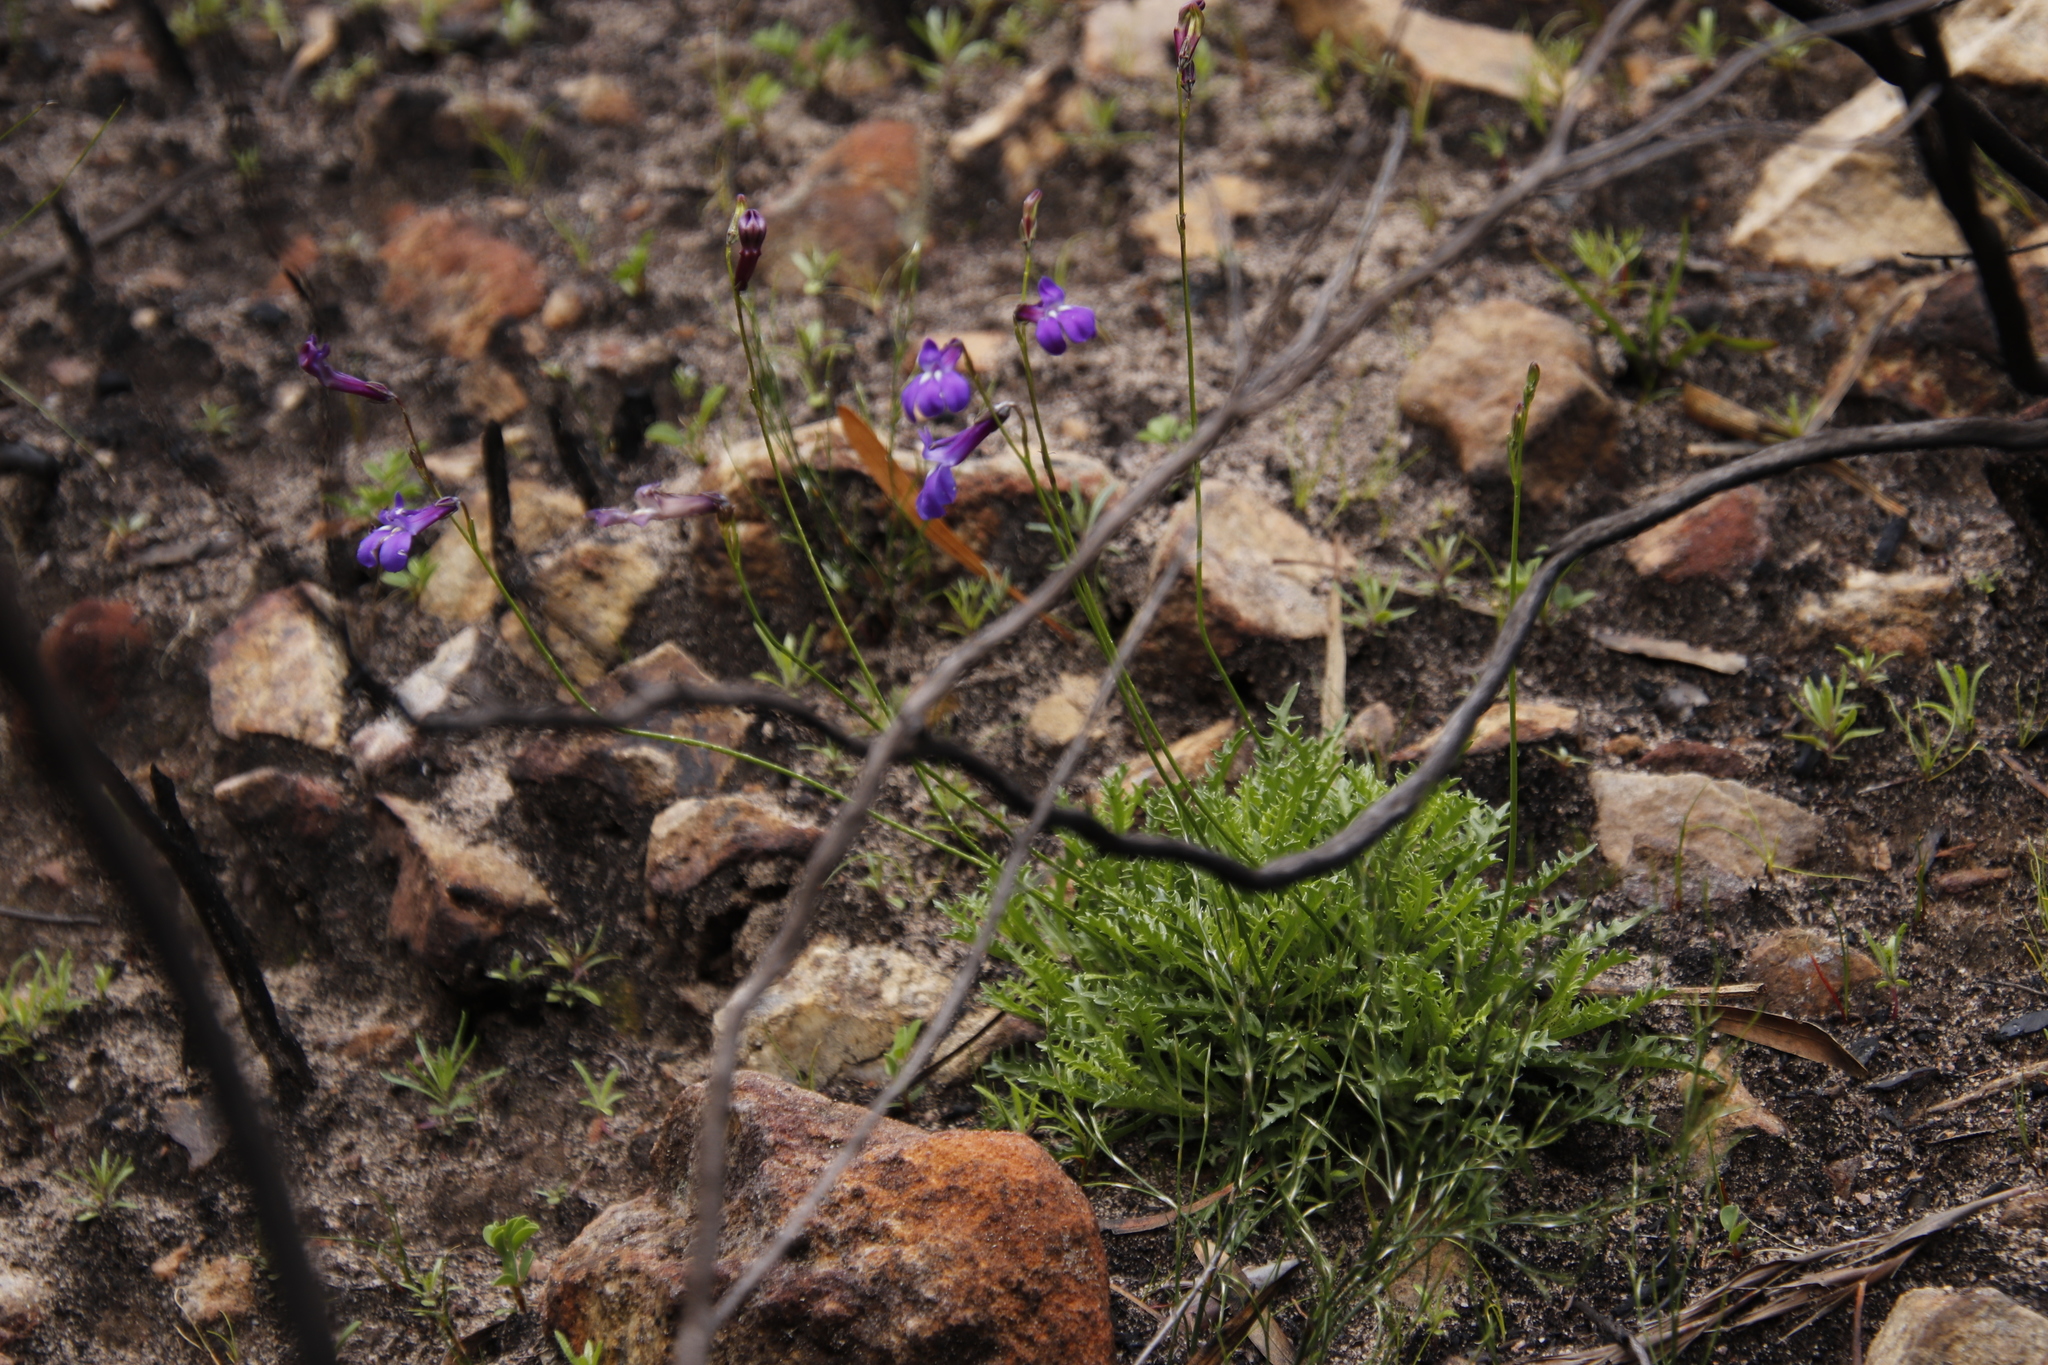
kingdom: Plantae
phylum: Tracheophyta
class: Magnoliopsida
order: Asterales
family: Campanulaceae
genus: Lobelia
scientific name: Lobelia coronopifolia
